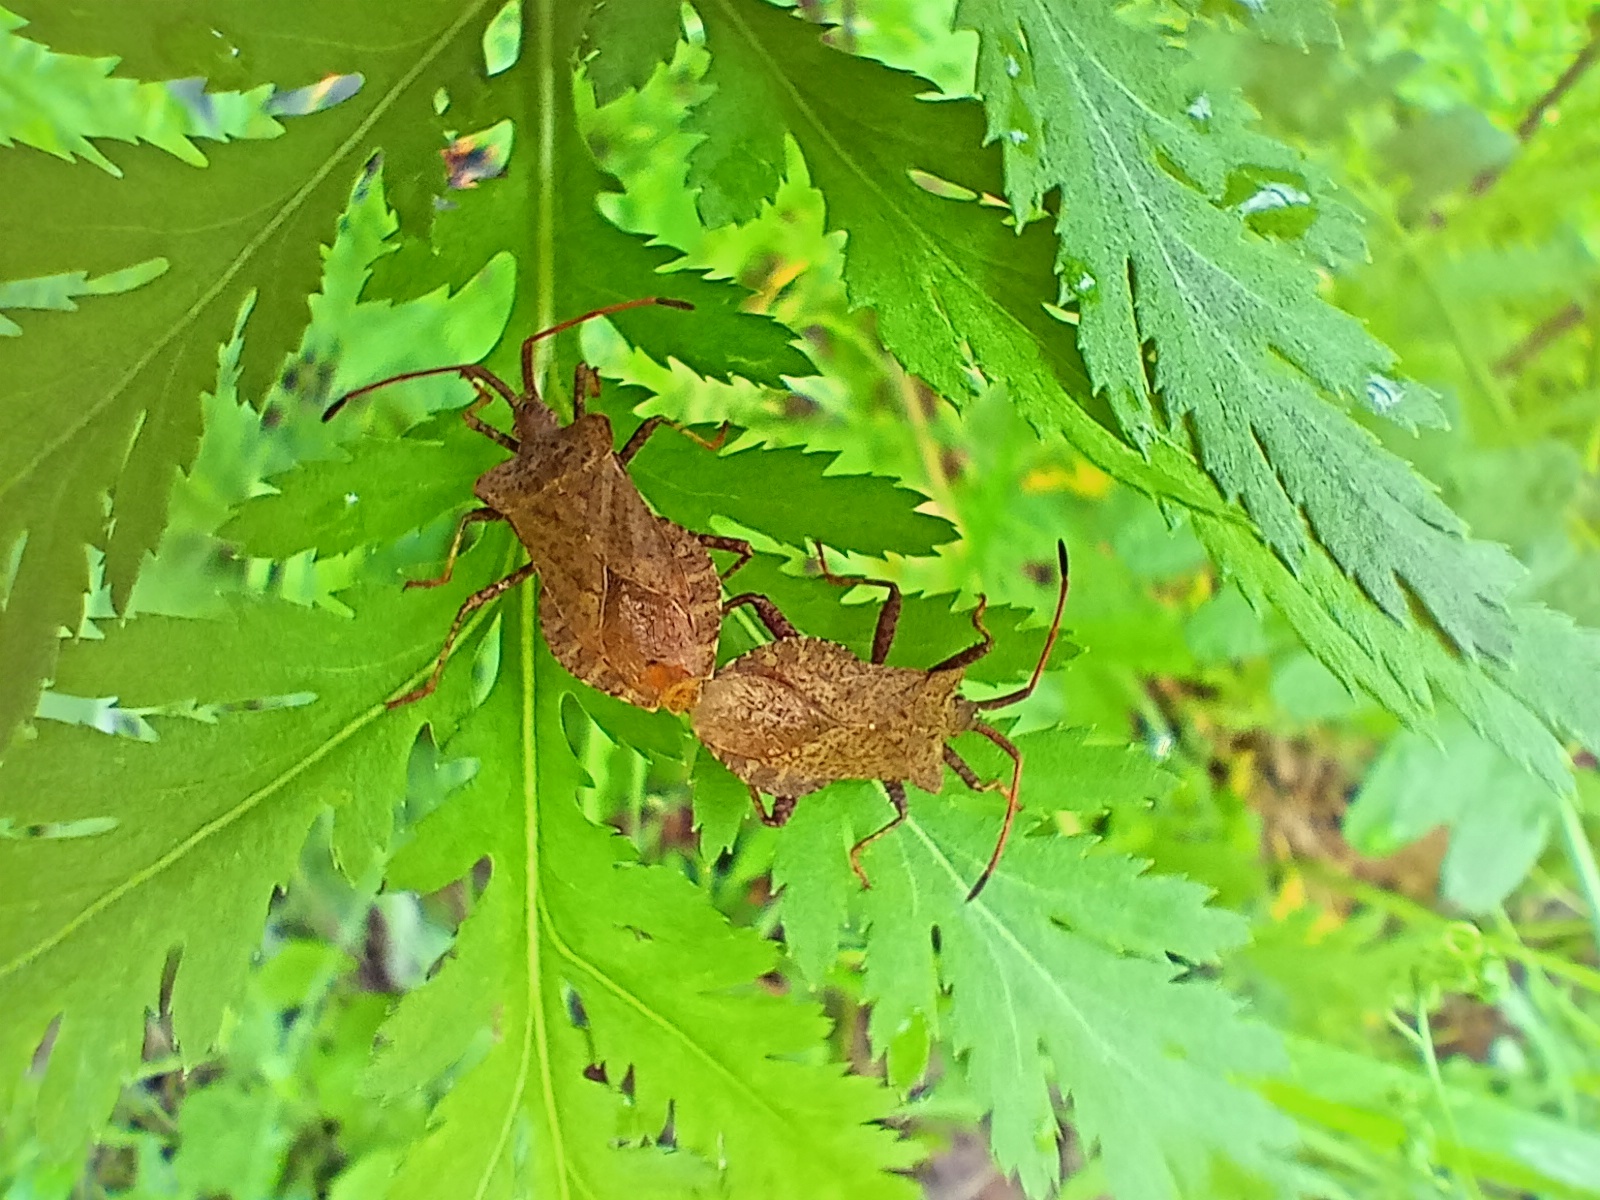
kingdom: Animalia
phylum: Arthropoda
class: Insecta
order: Hemiptera
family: Coreidae
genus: Coreus
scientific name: Coreus marginatus
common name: Dock bug
